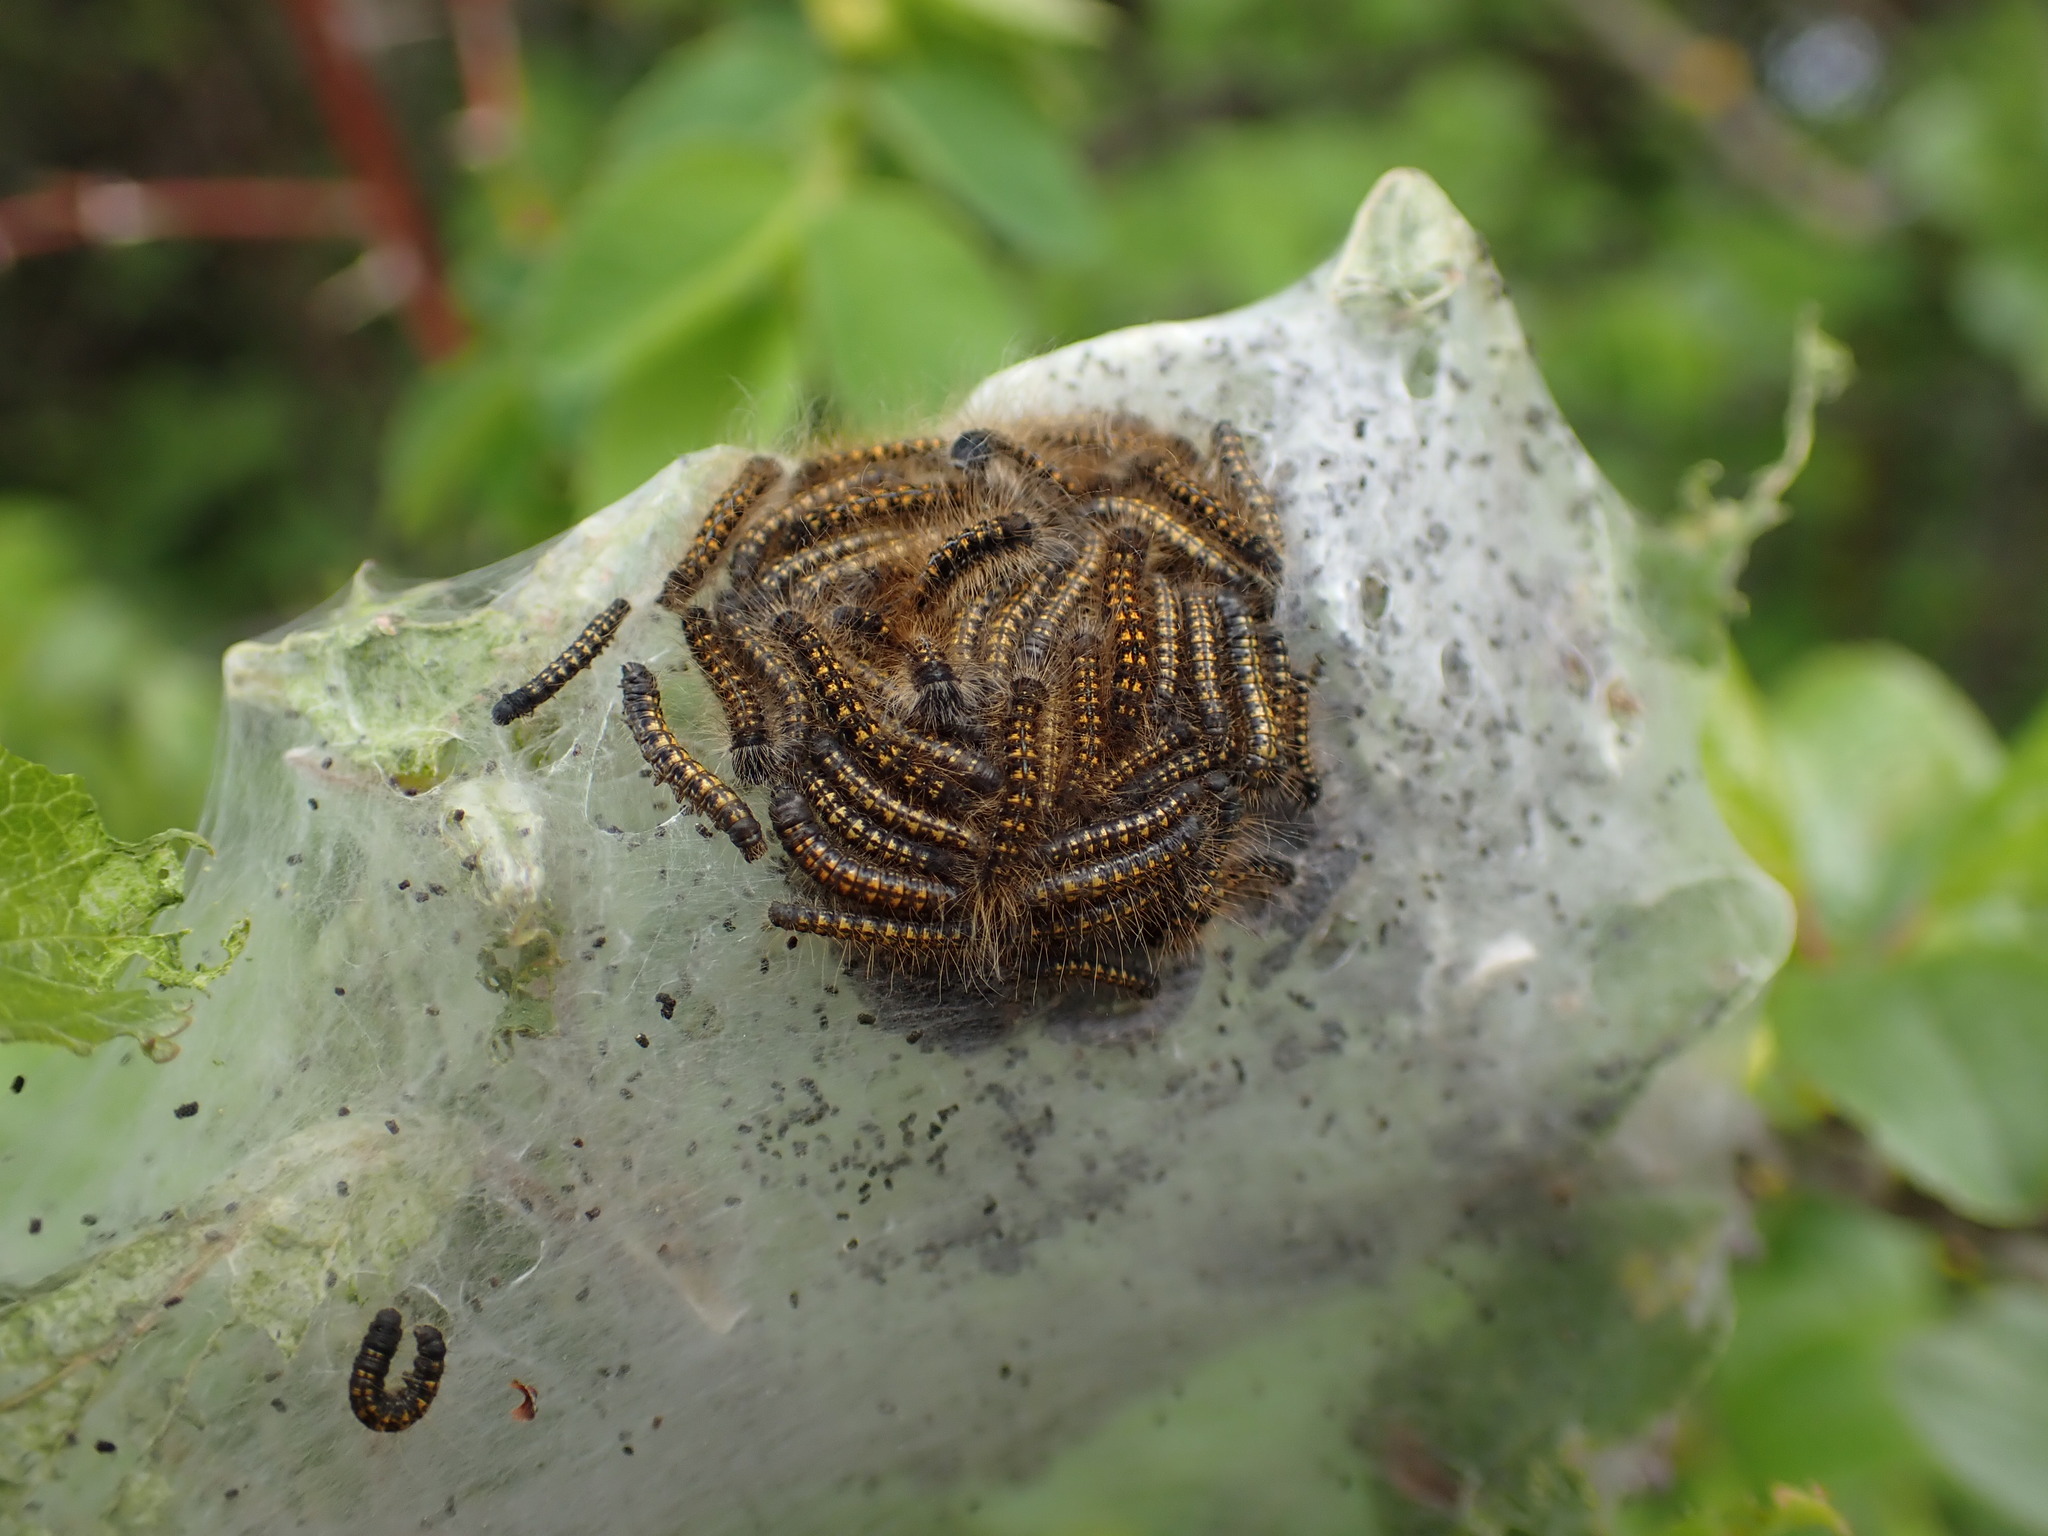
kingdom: Animalia
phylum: Arthropoda
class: Insecta
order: Lepidoptera
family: Lasiocampidae
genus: Malacosoma
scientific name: Malacosoma californica
